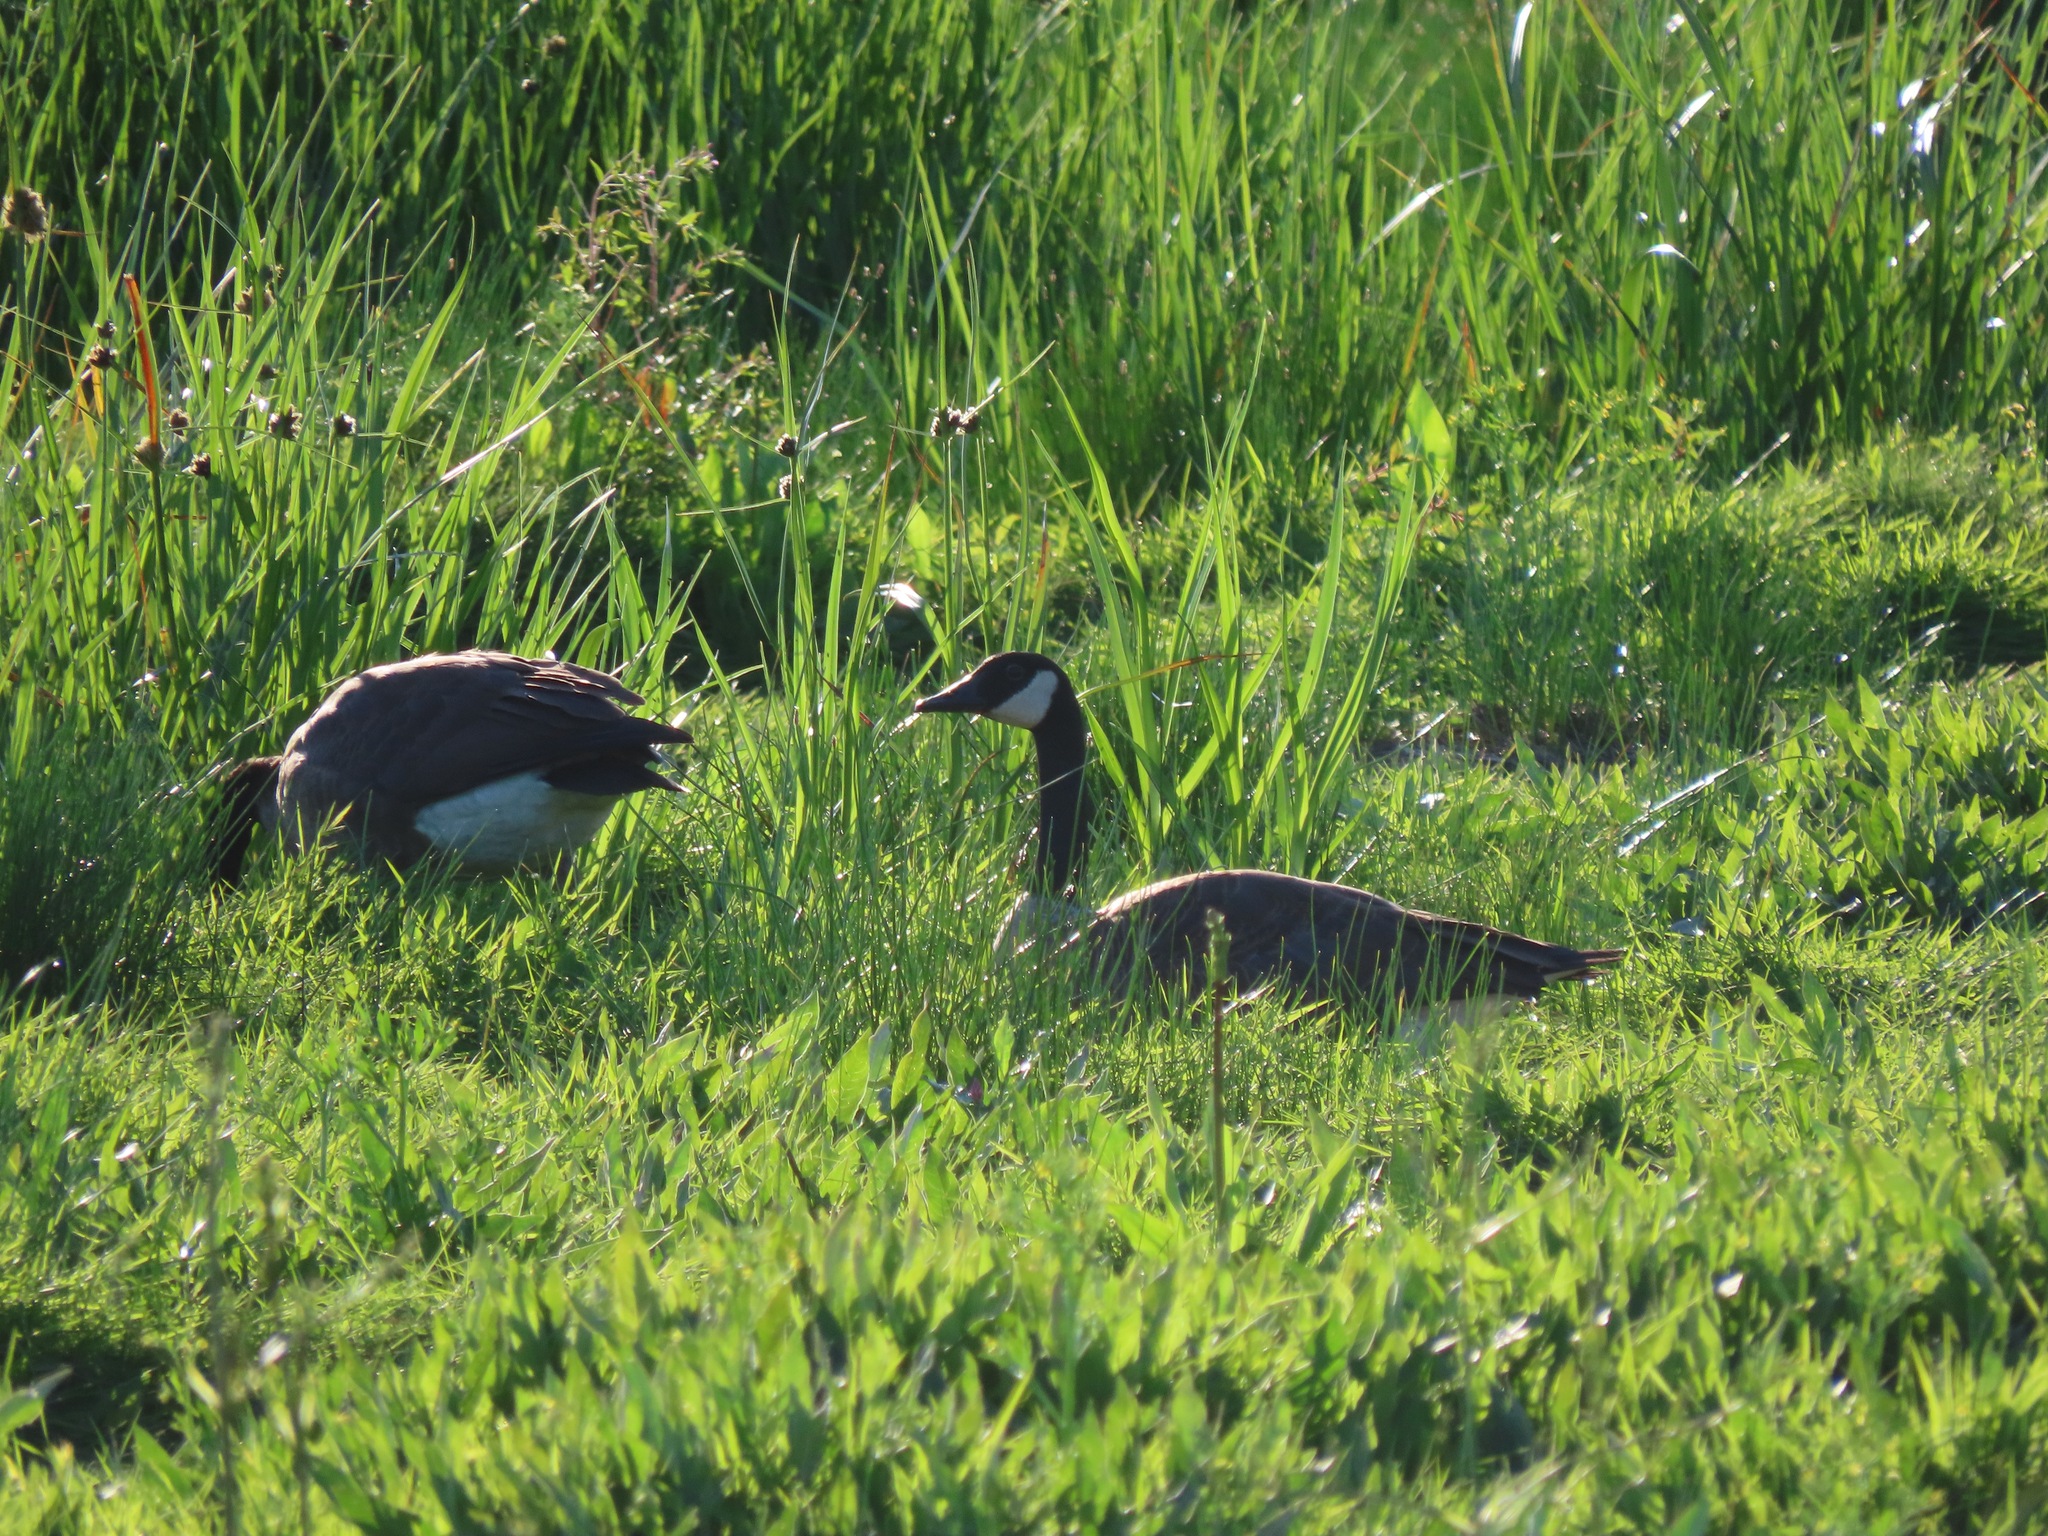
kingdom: Animalia
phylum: Chordata
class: Aves
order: Anseriformes
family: Anatidae
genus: Branta
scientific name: Branta canadensis
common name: Canada goose
